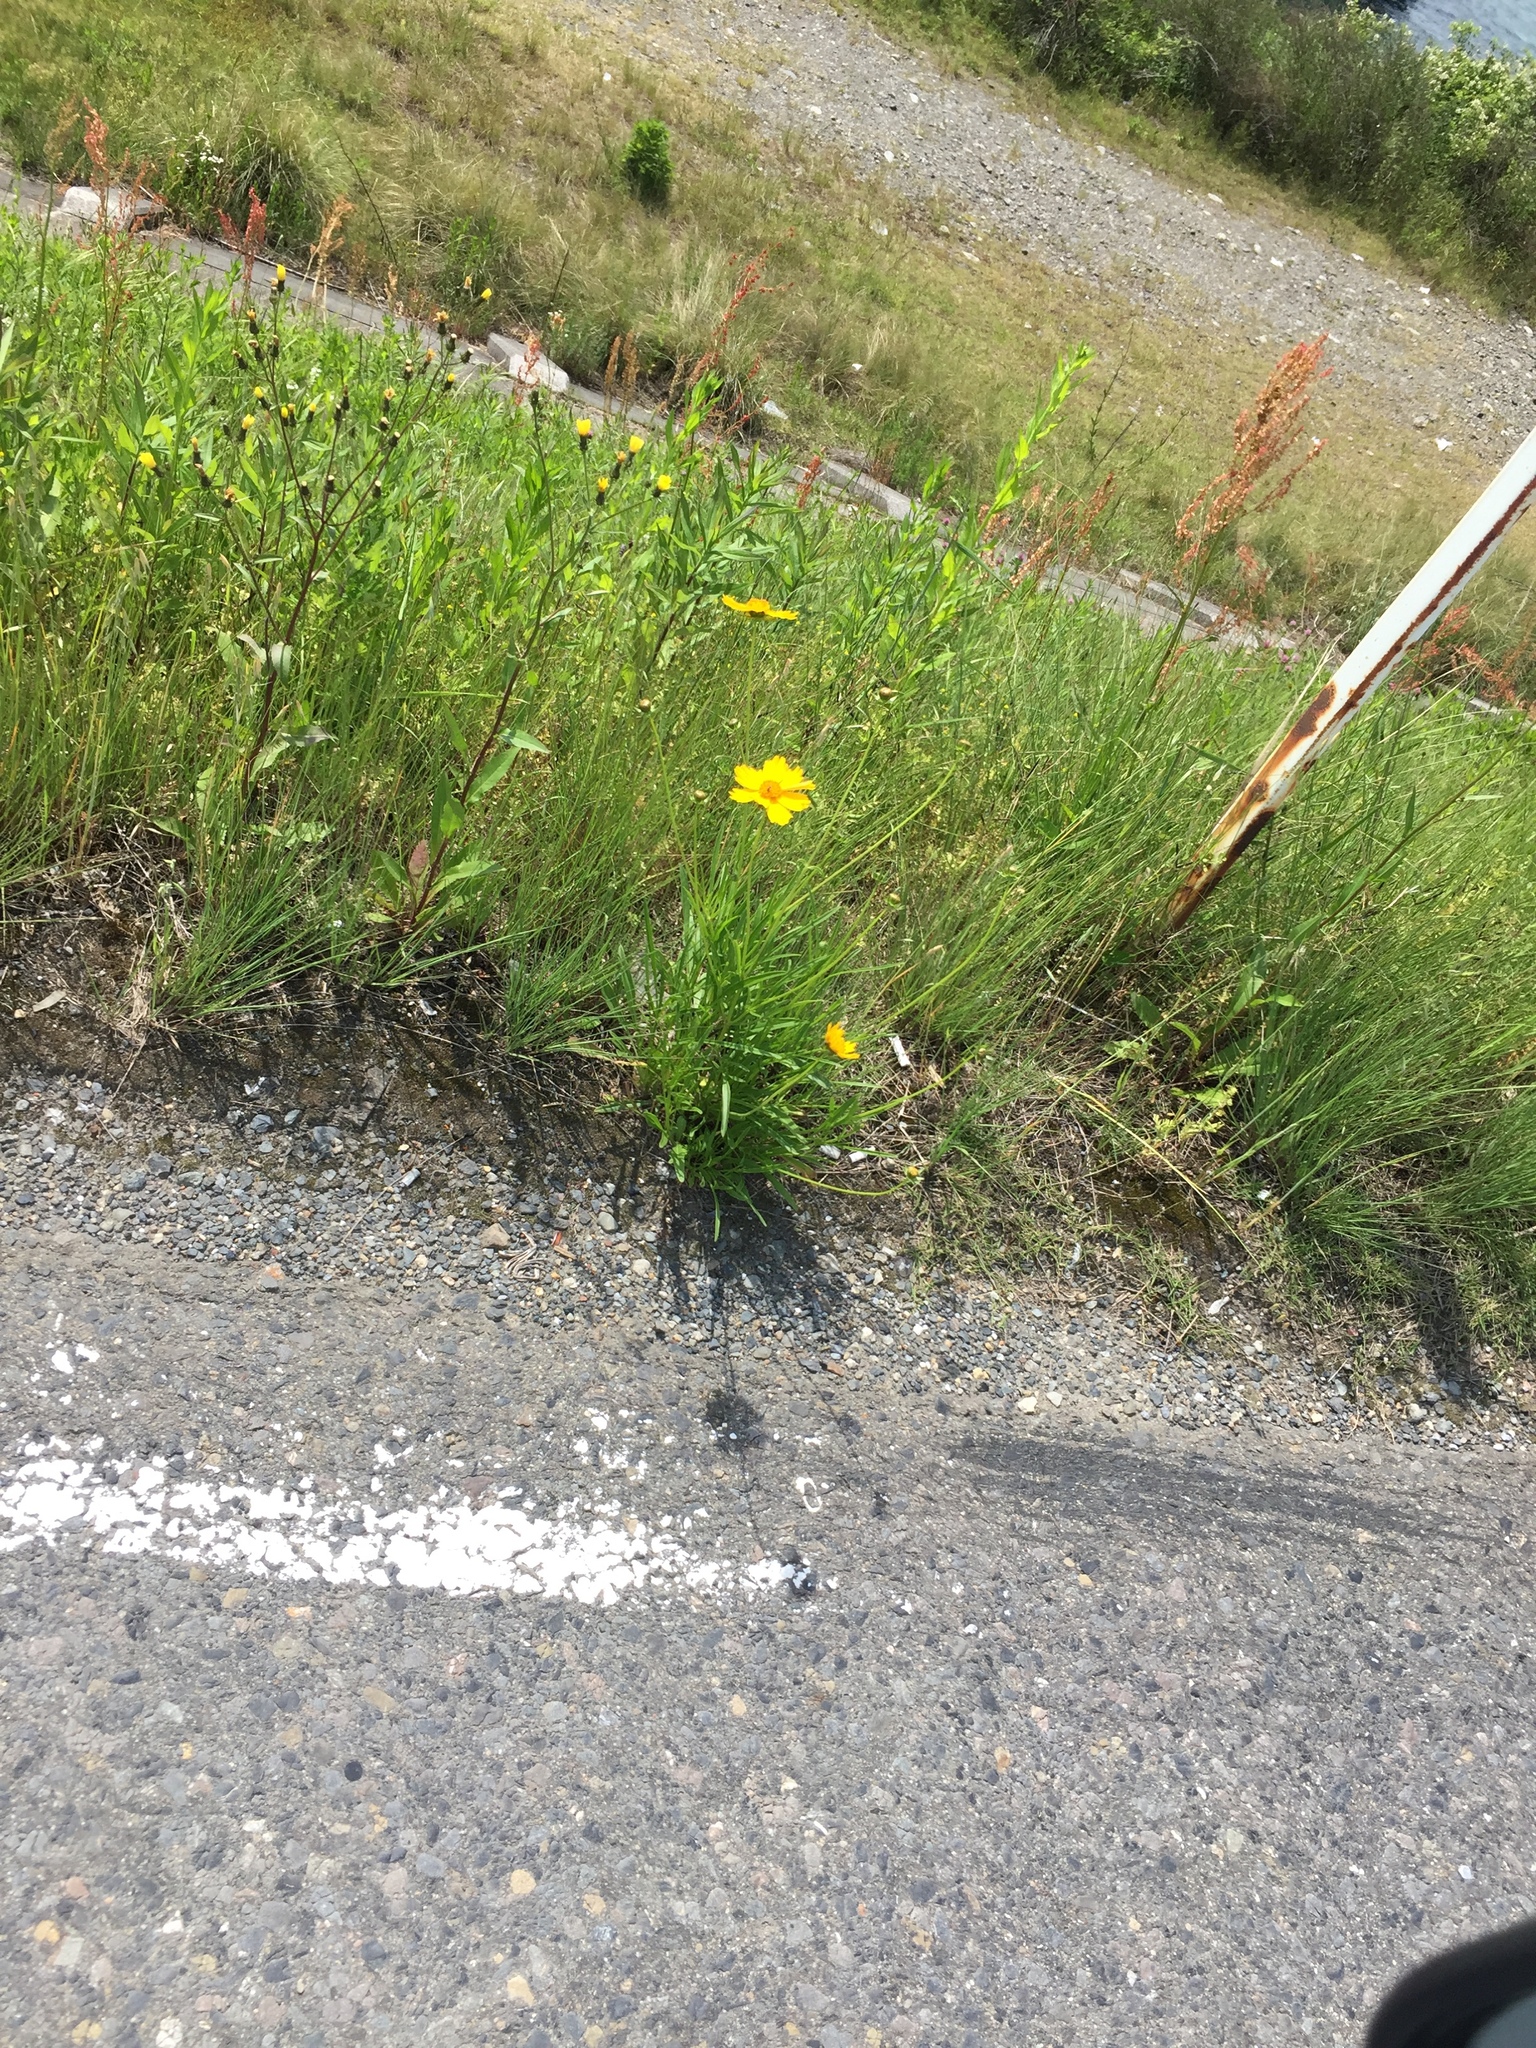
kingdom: Plantae
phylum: Tracheophyta
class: Magnoliopsida
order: Asterales
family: Asteraceae
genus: Coreopsis
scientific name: Coreopsis lanceolata
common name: Garden coreopsis
